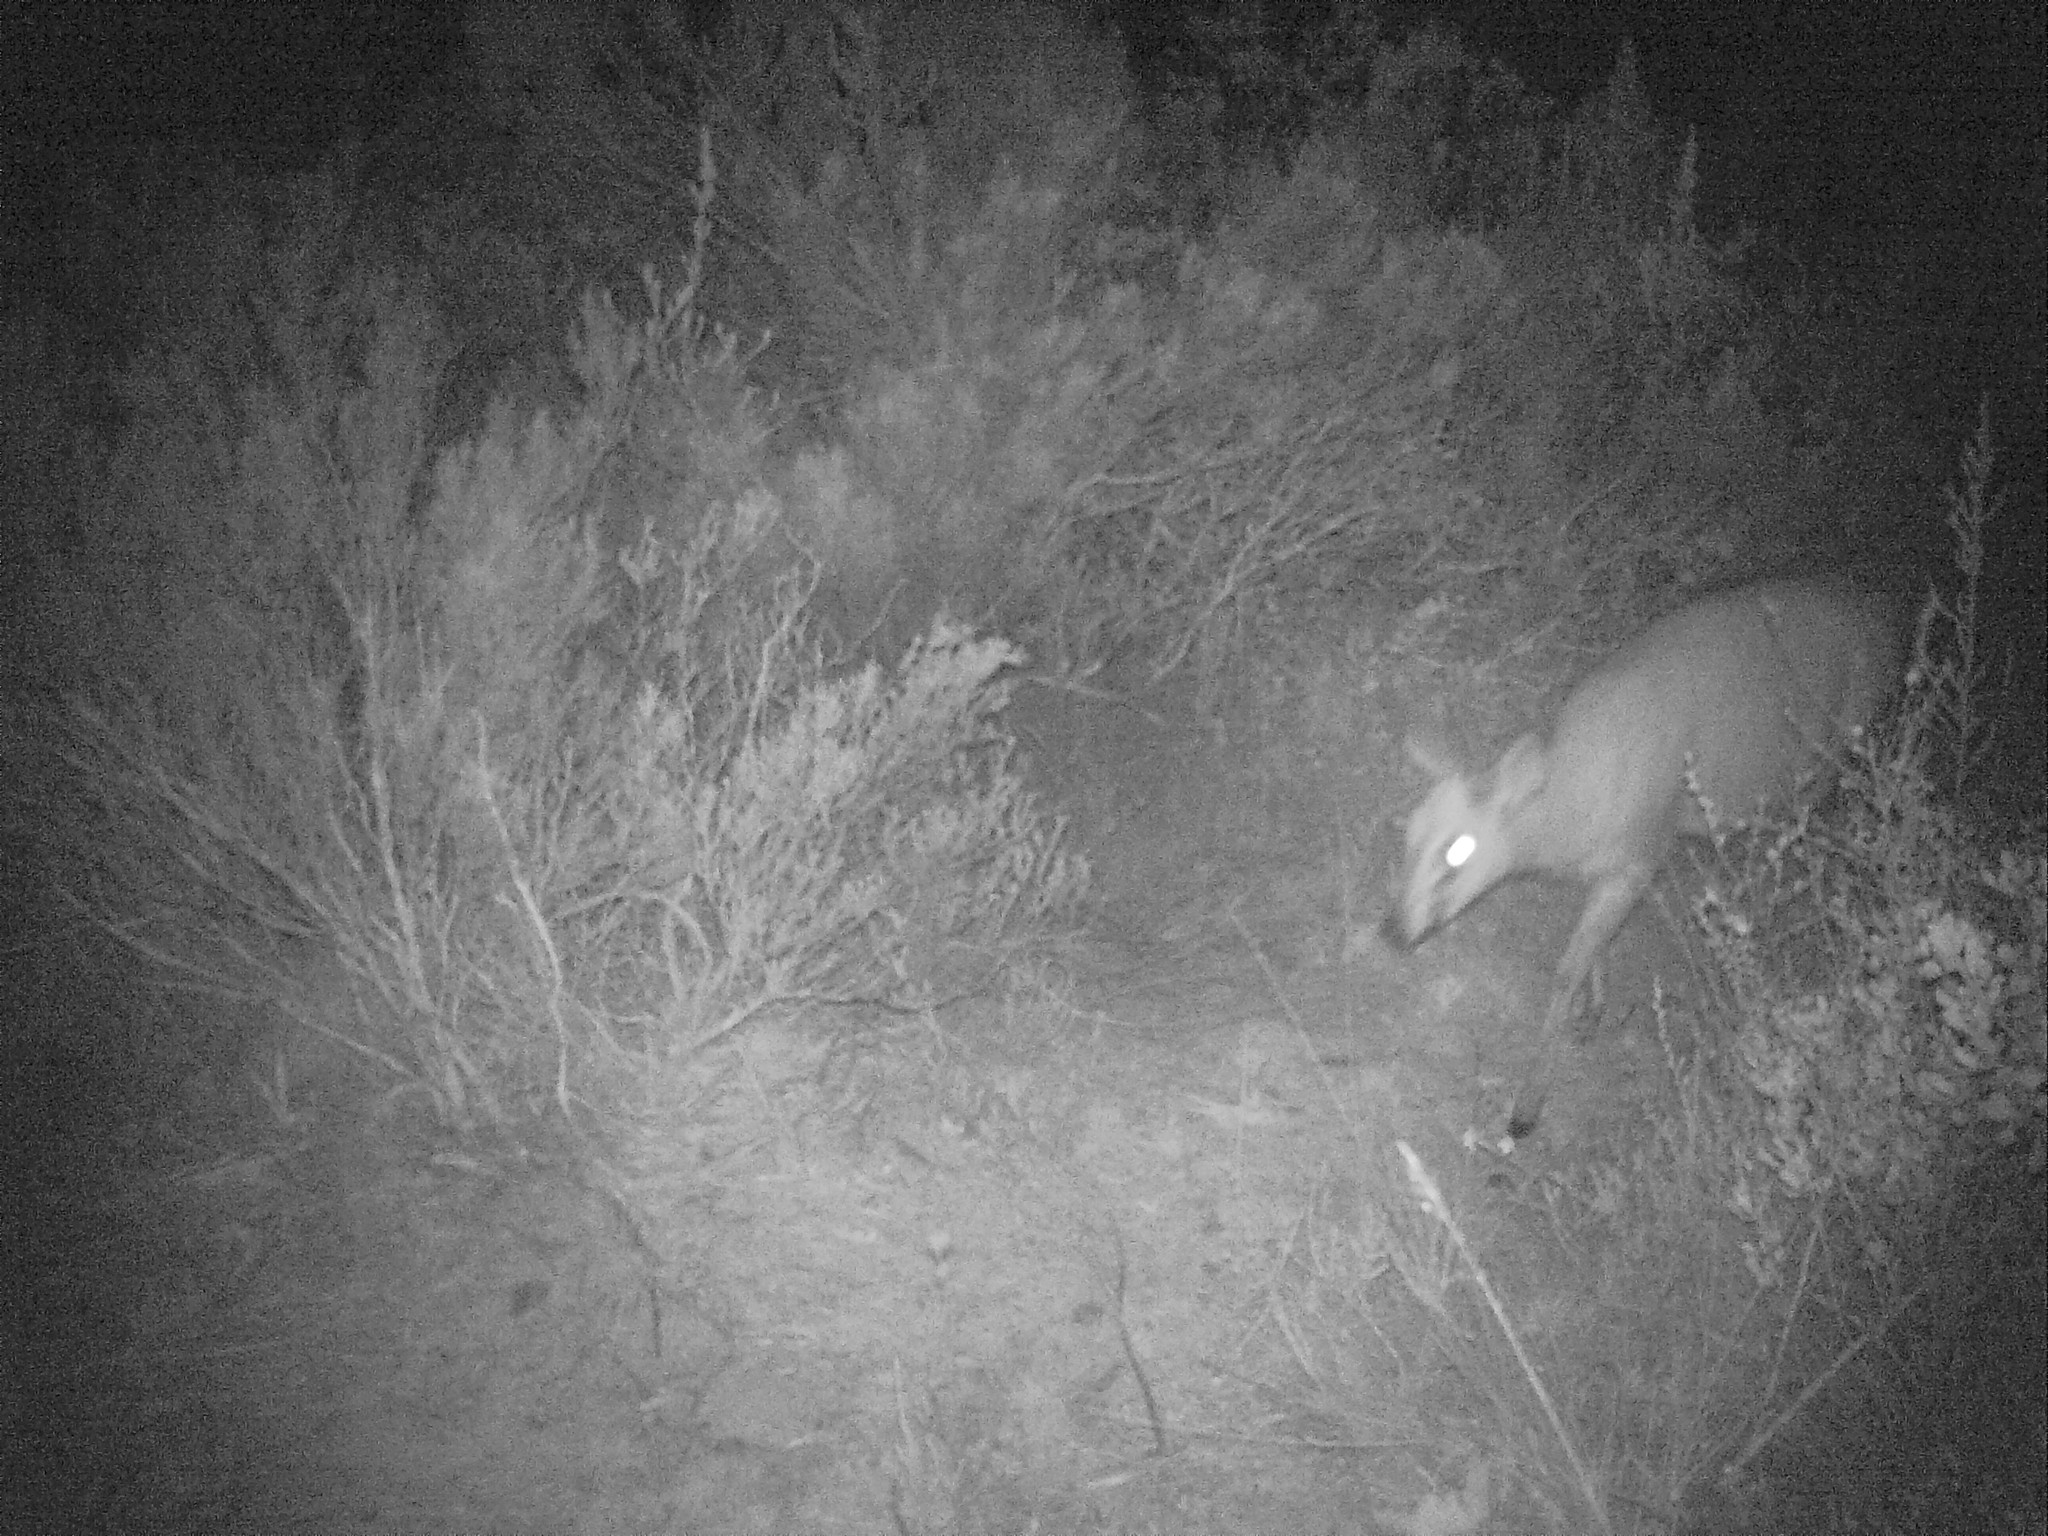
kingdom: Animalia
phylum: Chordata
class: Mammalia
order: Artiodactyla
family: Bovidae
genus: Sylvicapra
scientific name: Sylvicapra grimmia
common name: Bush duiker
